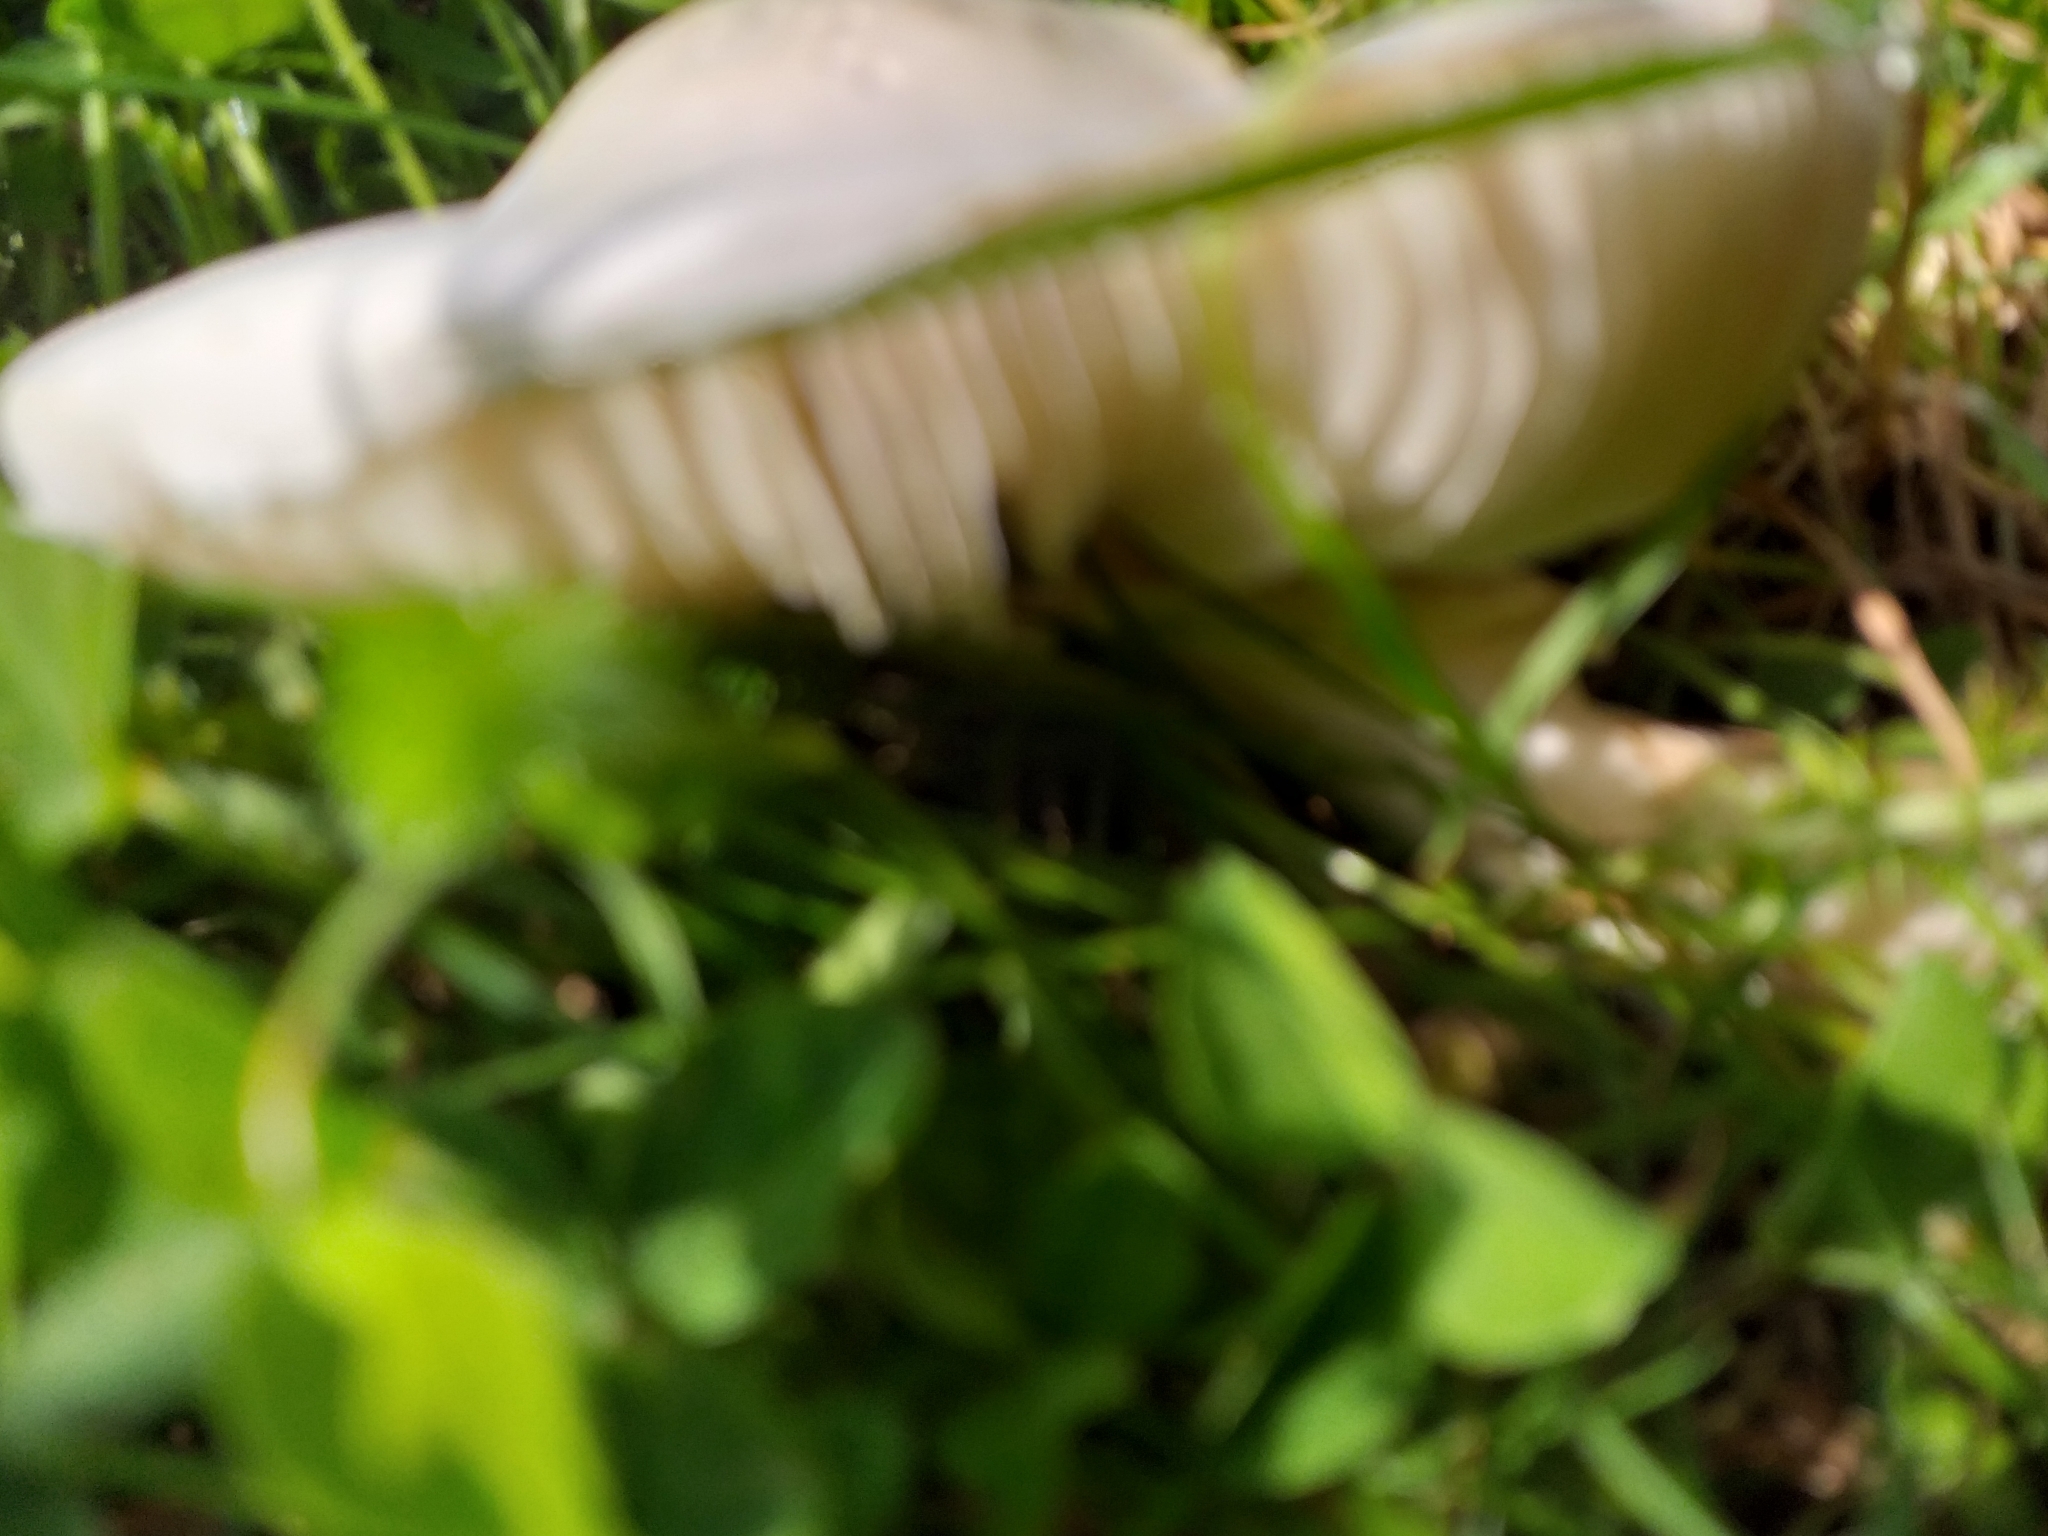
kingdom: Fungi
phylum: Basidiomycota
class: Agaricomycetes
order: Agaricales
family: Agaricaceae
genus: Leucoagaricus
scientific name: Leucoagaricus leucothites
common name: White dapperling
